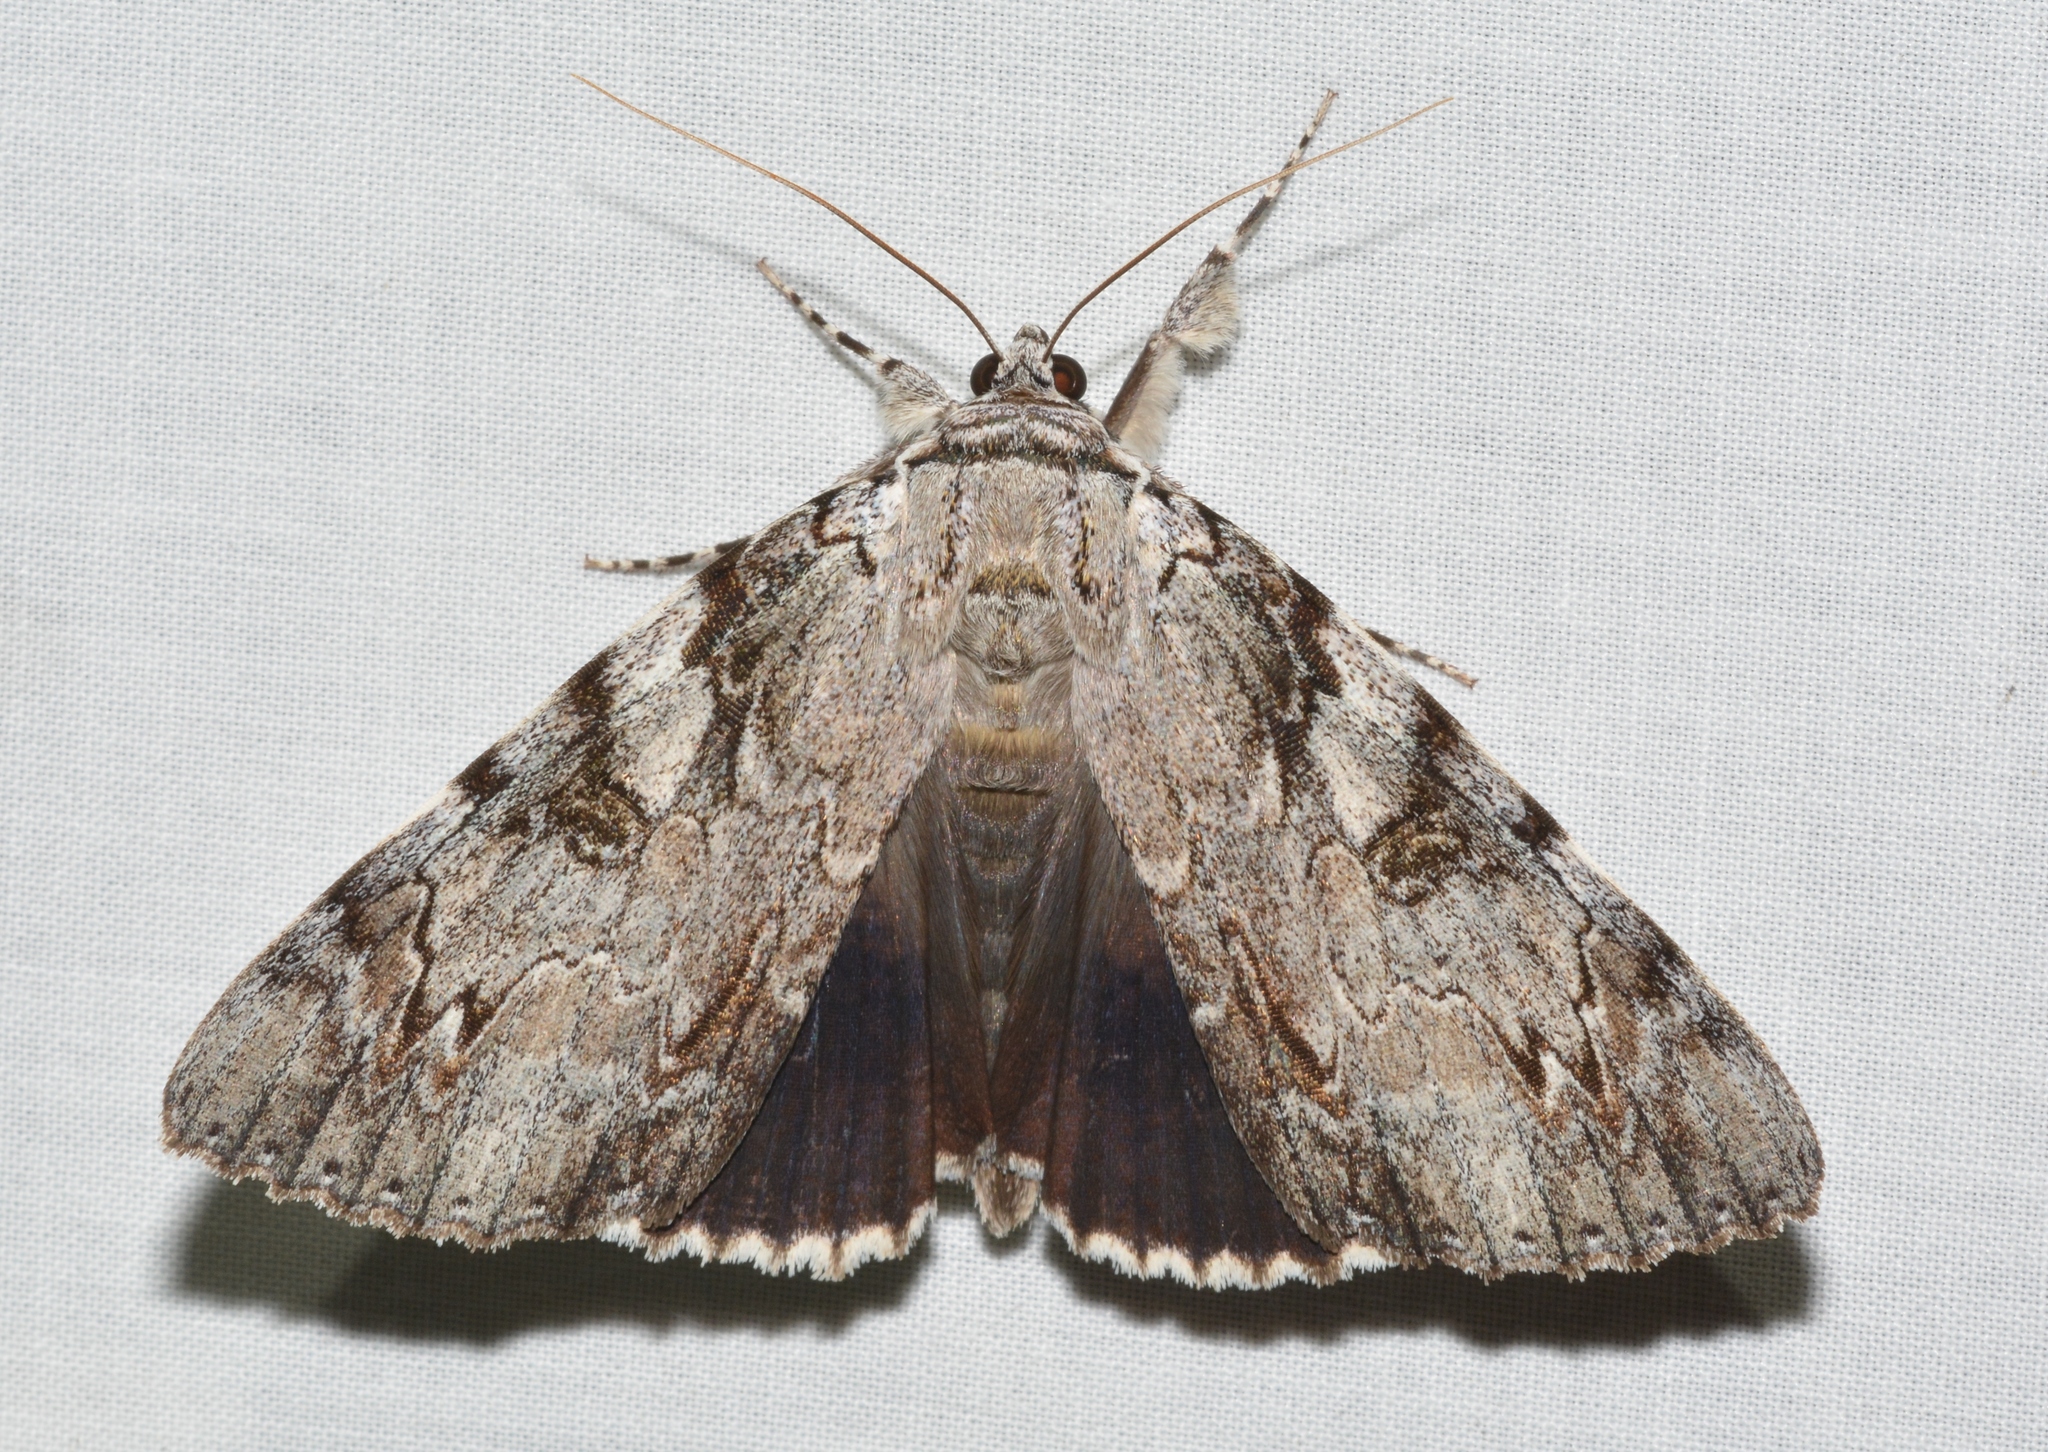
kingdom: Animalia
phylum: Arthropoda
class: Insecta
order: Lepidoptera
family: Erebidae
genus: Catocala
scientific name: Catocala dejecta
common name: Dejected underwing
